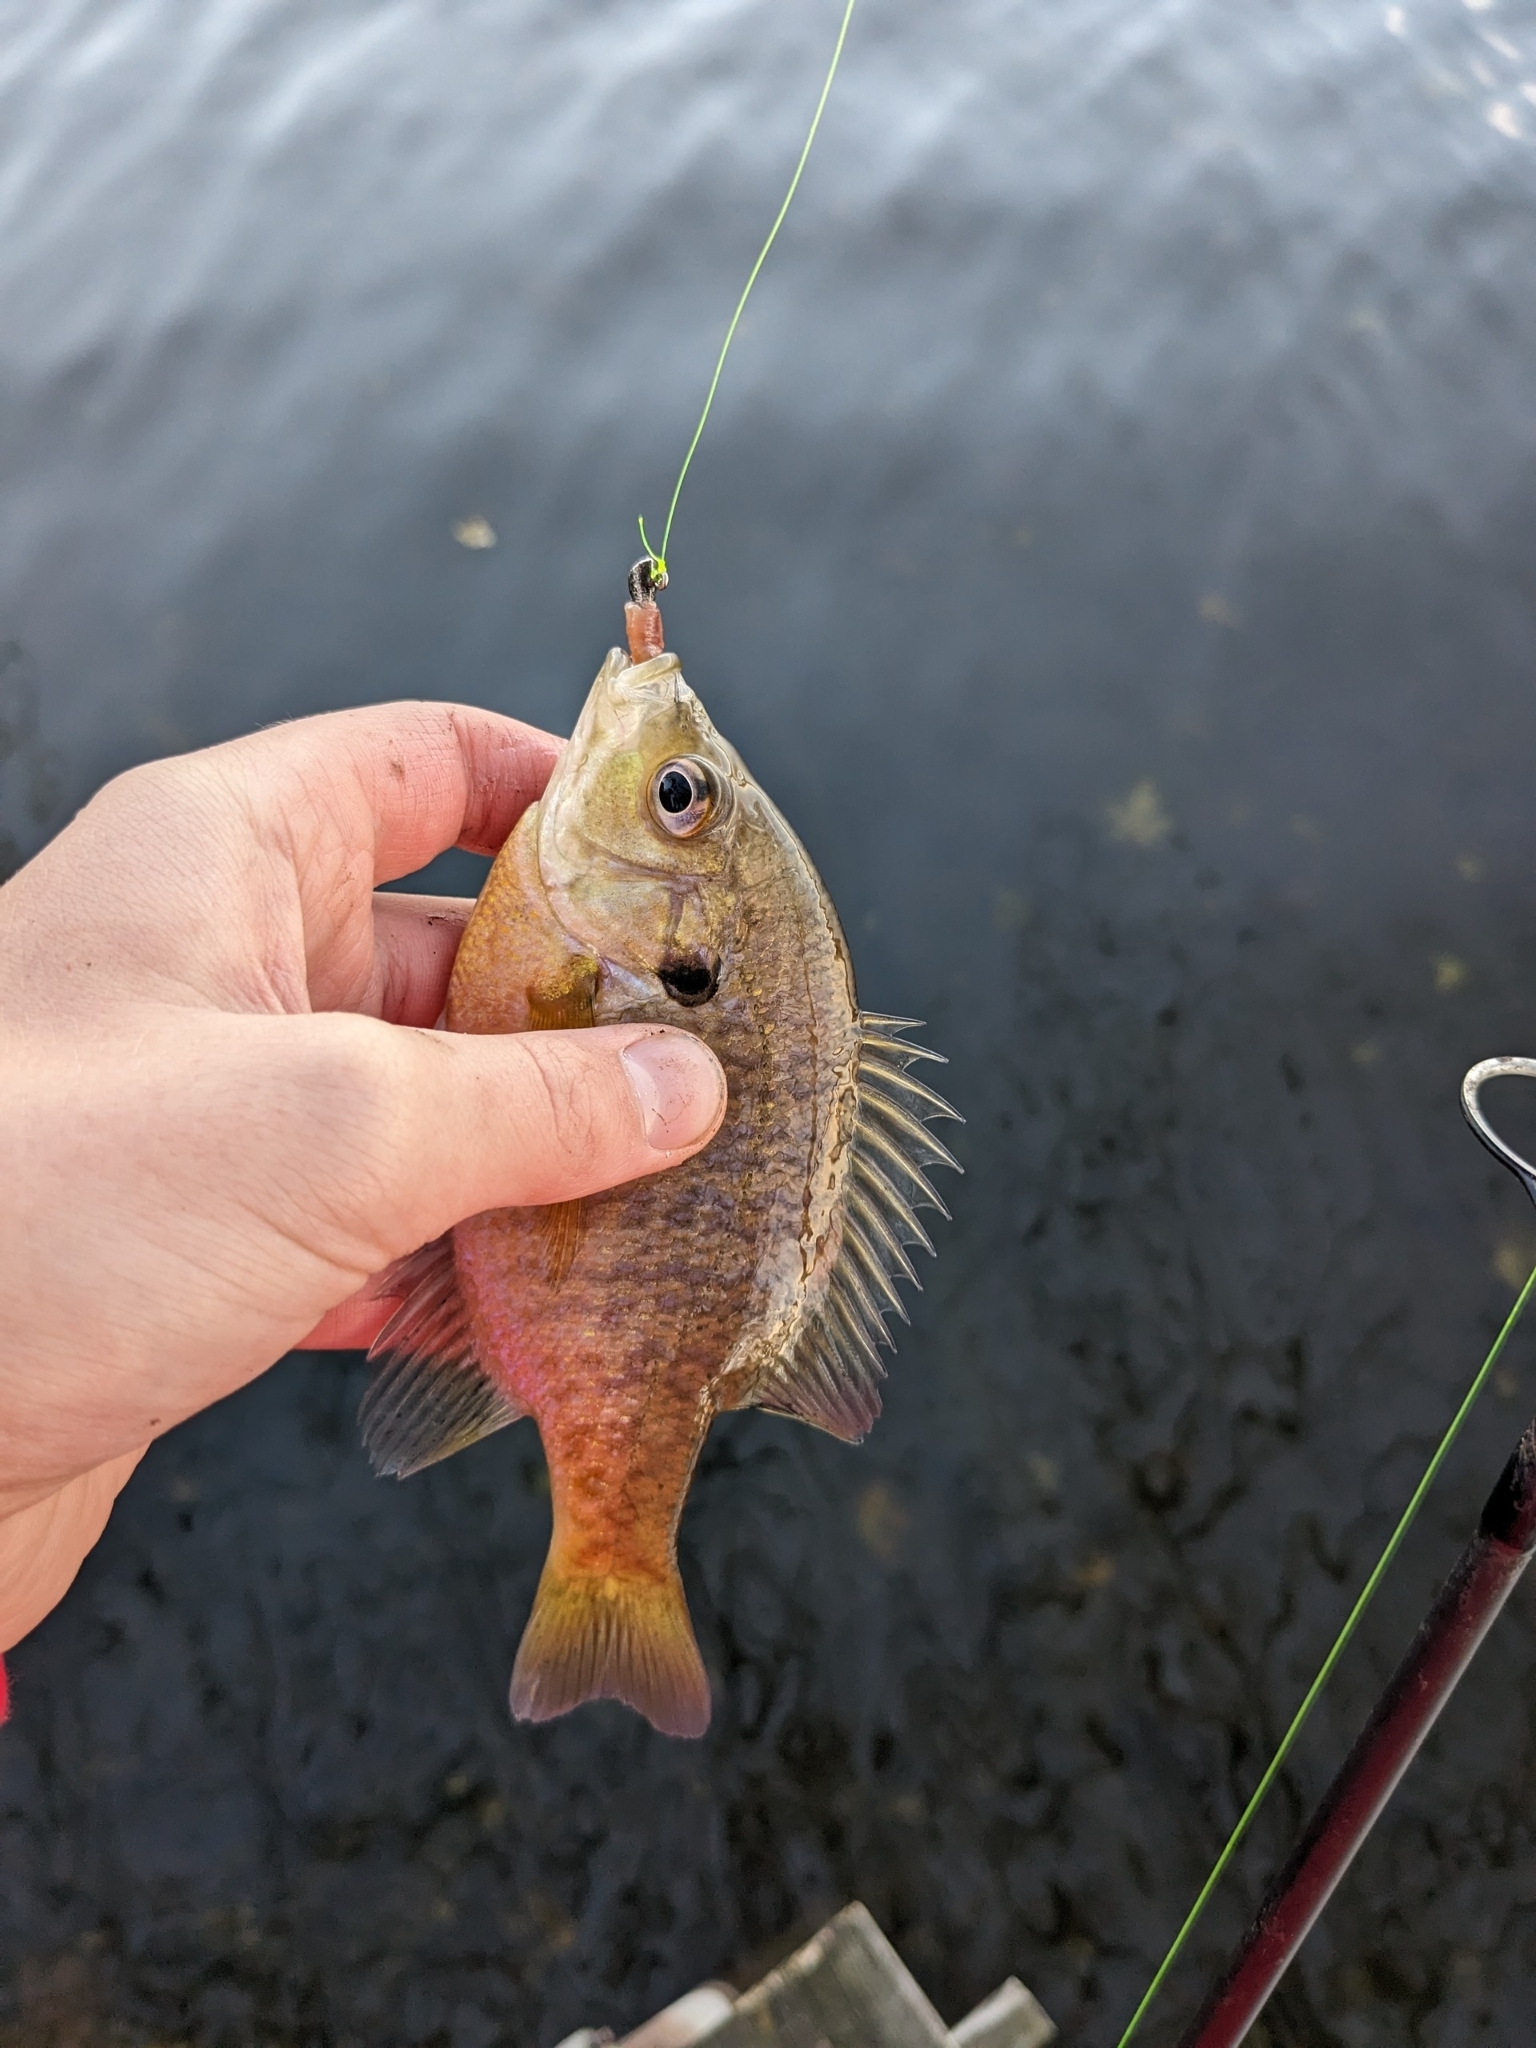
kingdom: Animalia
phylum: Chordata
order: Perciformes
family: Centrarchidae
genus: Lepomis
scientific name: Lepomis macrochirus
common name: Bluegill
